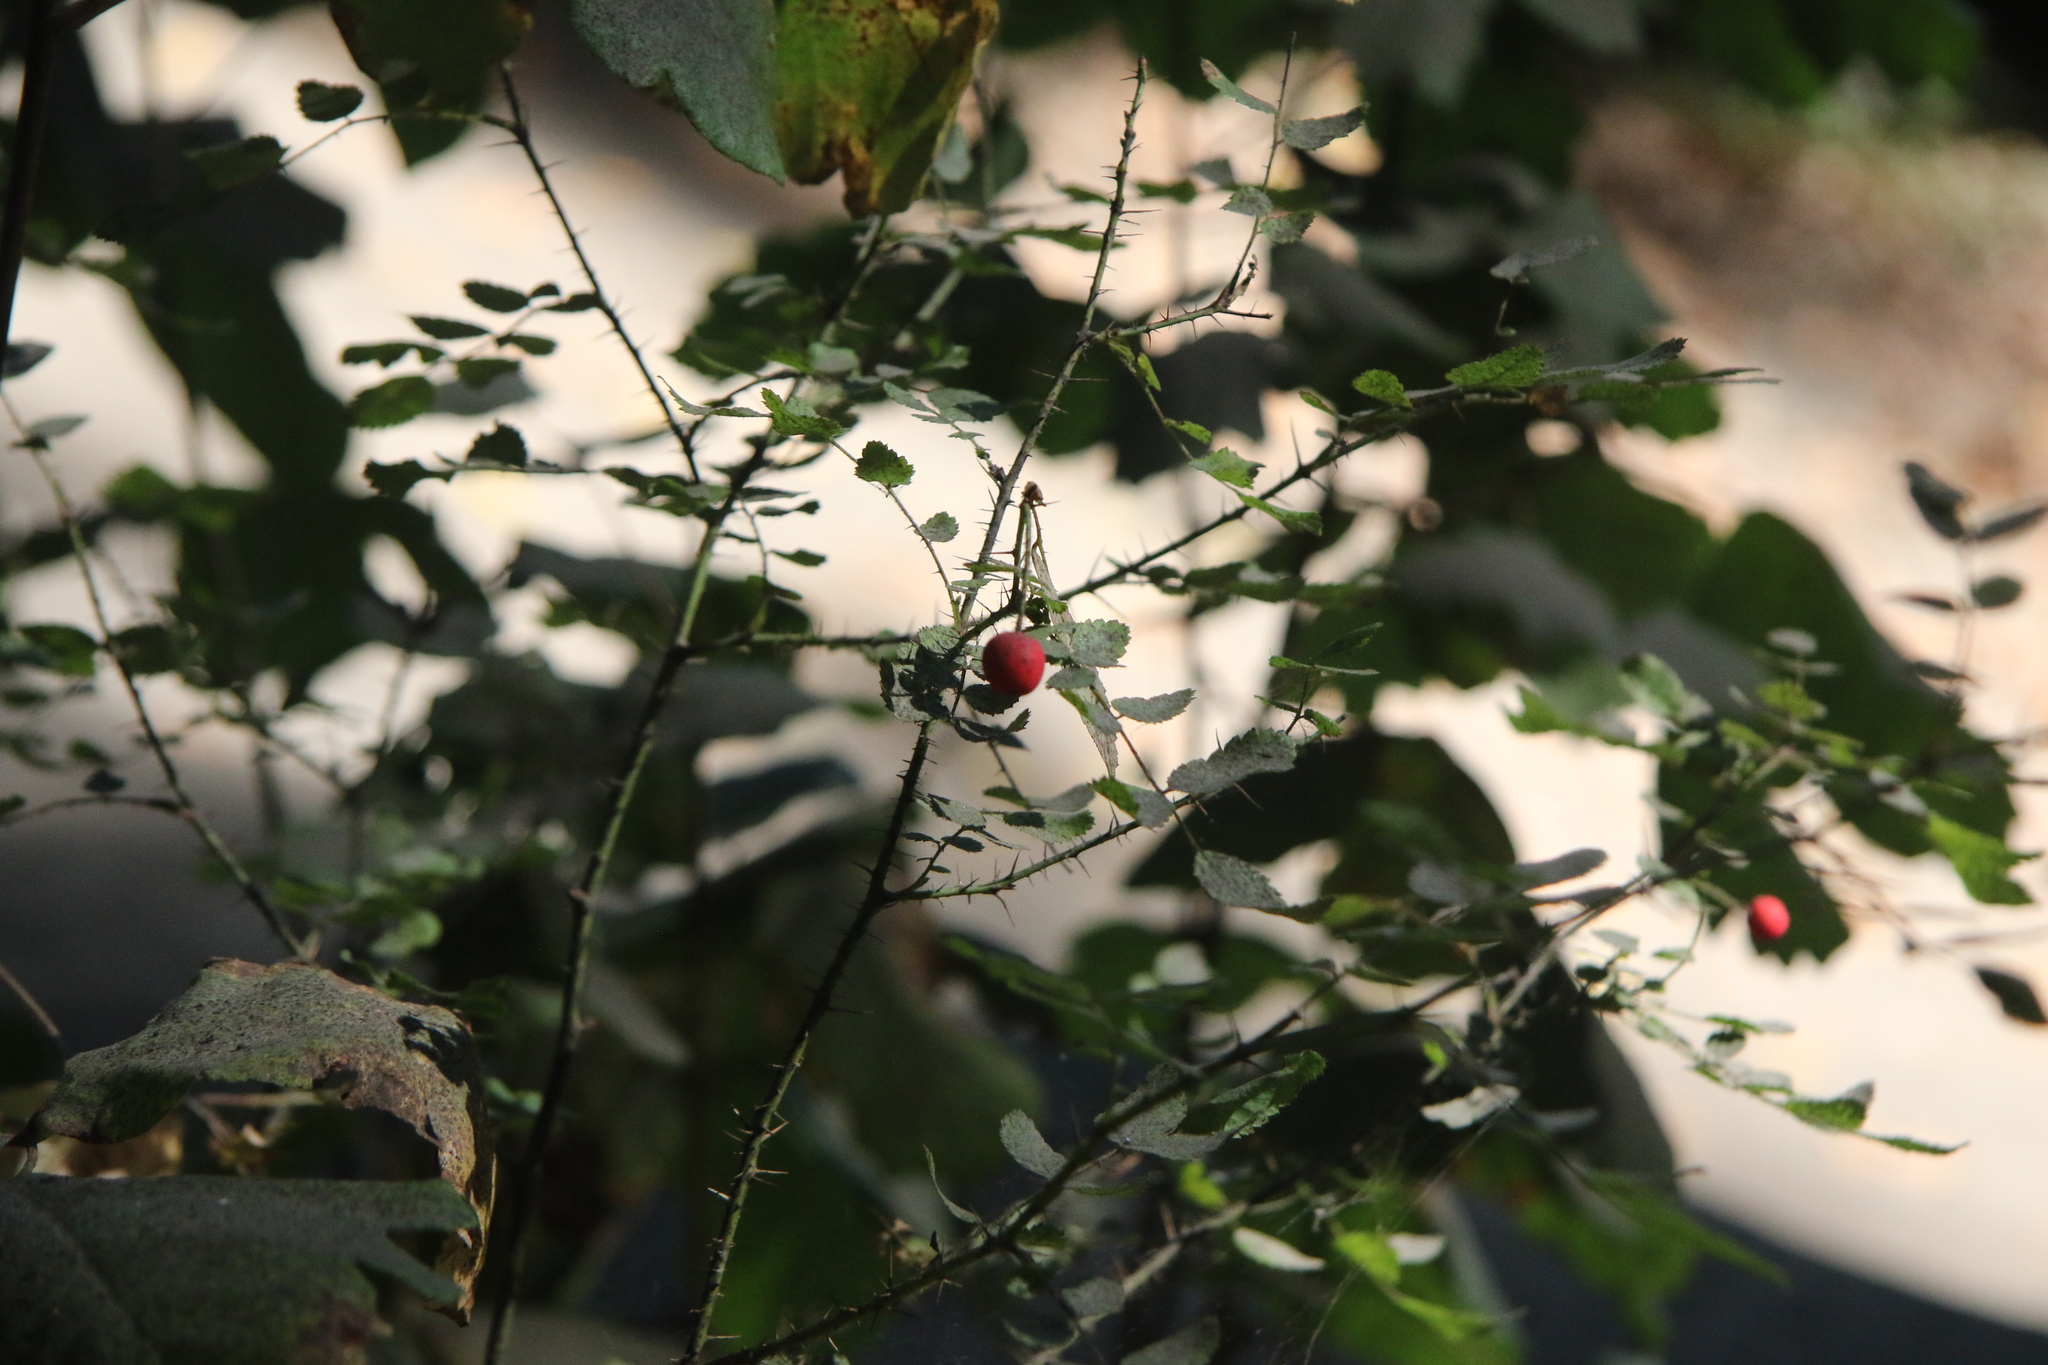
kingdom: Plantae
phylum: Tracheophyta
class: Magnoliopsida
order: Rosales
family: Rosaceae
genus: Rosa
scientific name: Rosa gymnocarpa
